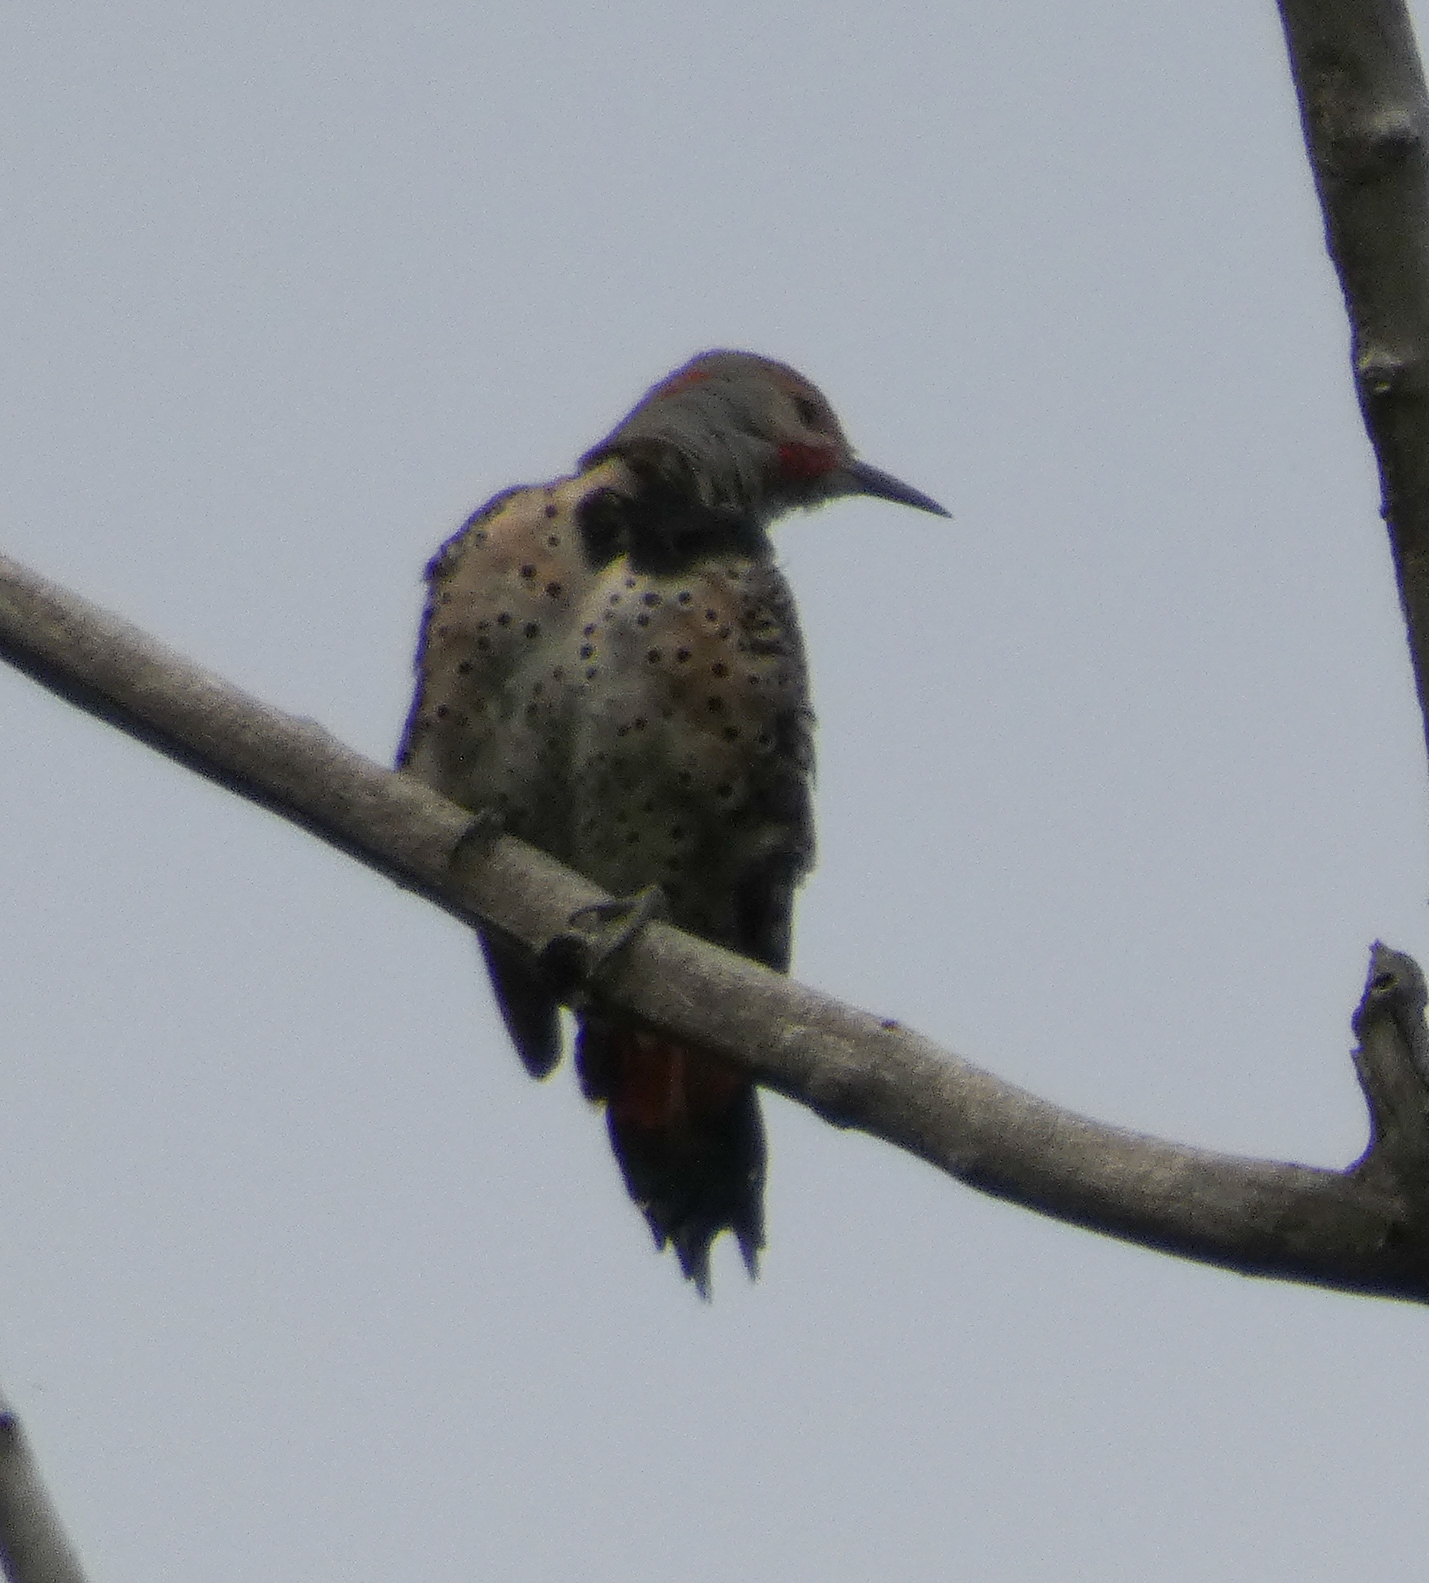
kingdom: Animalia
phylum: Chordata
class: Aves
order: Piciformes
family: Picidae
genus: Colaptes
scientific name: Colaptes auratus
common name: Northern flicker
